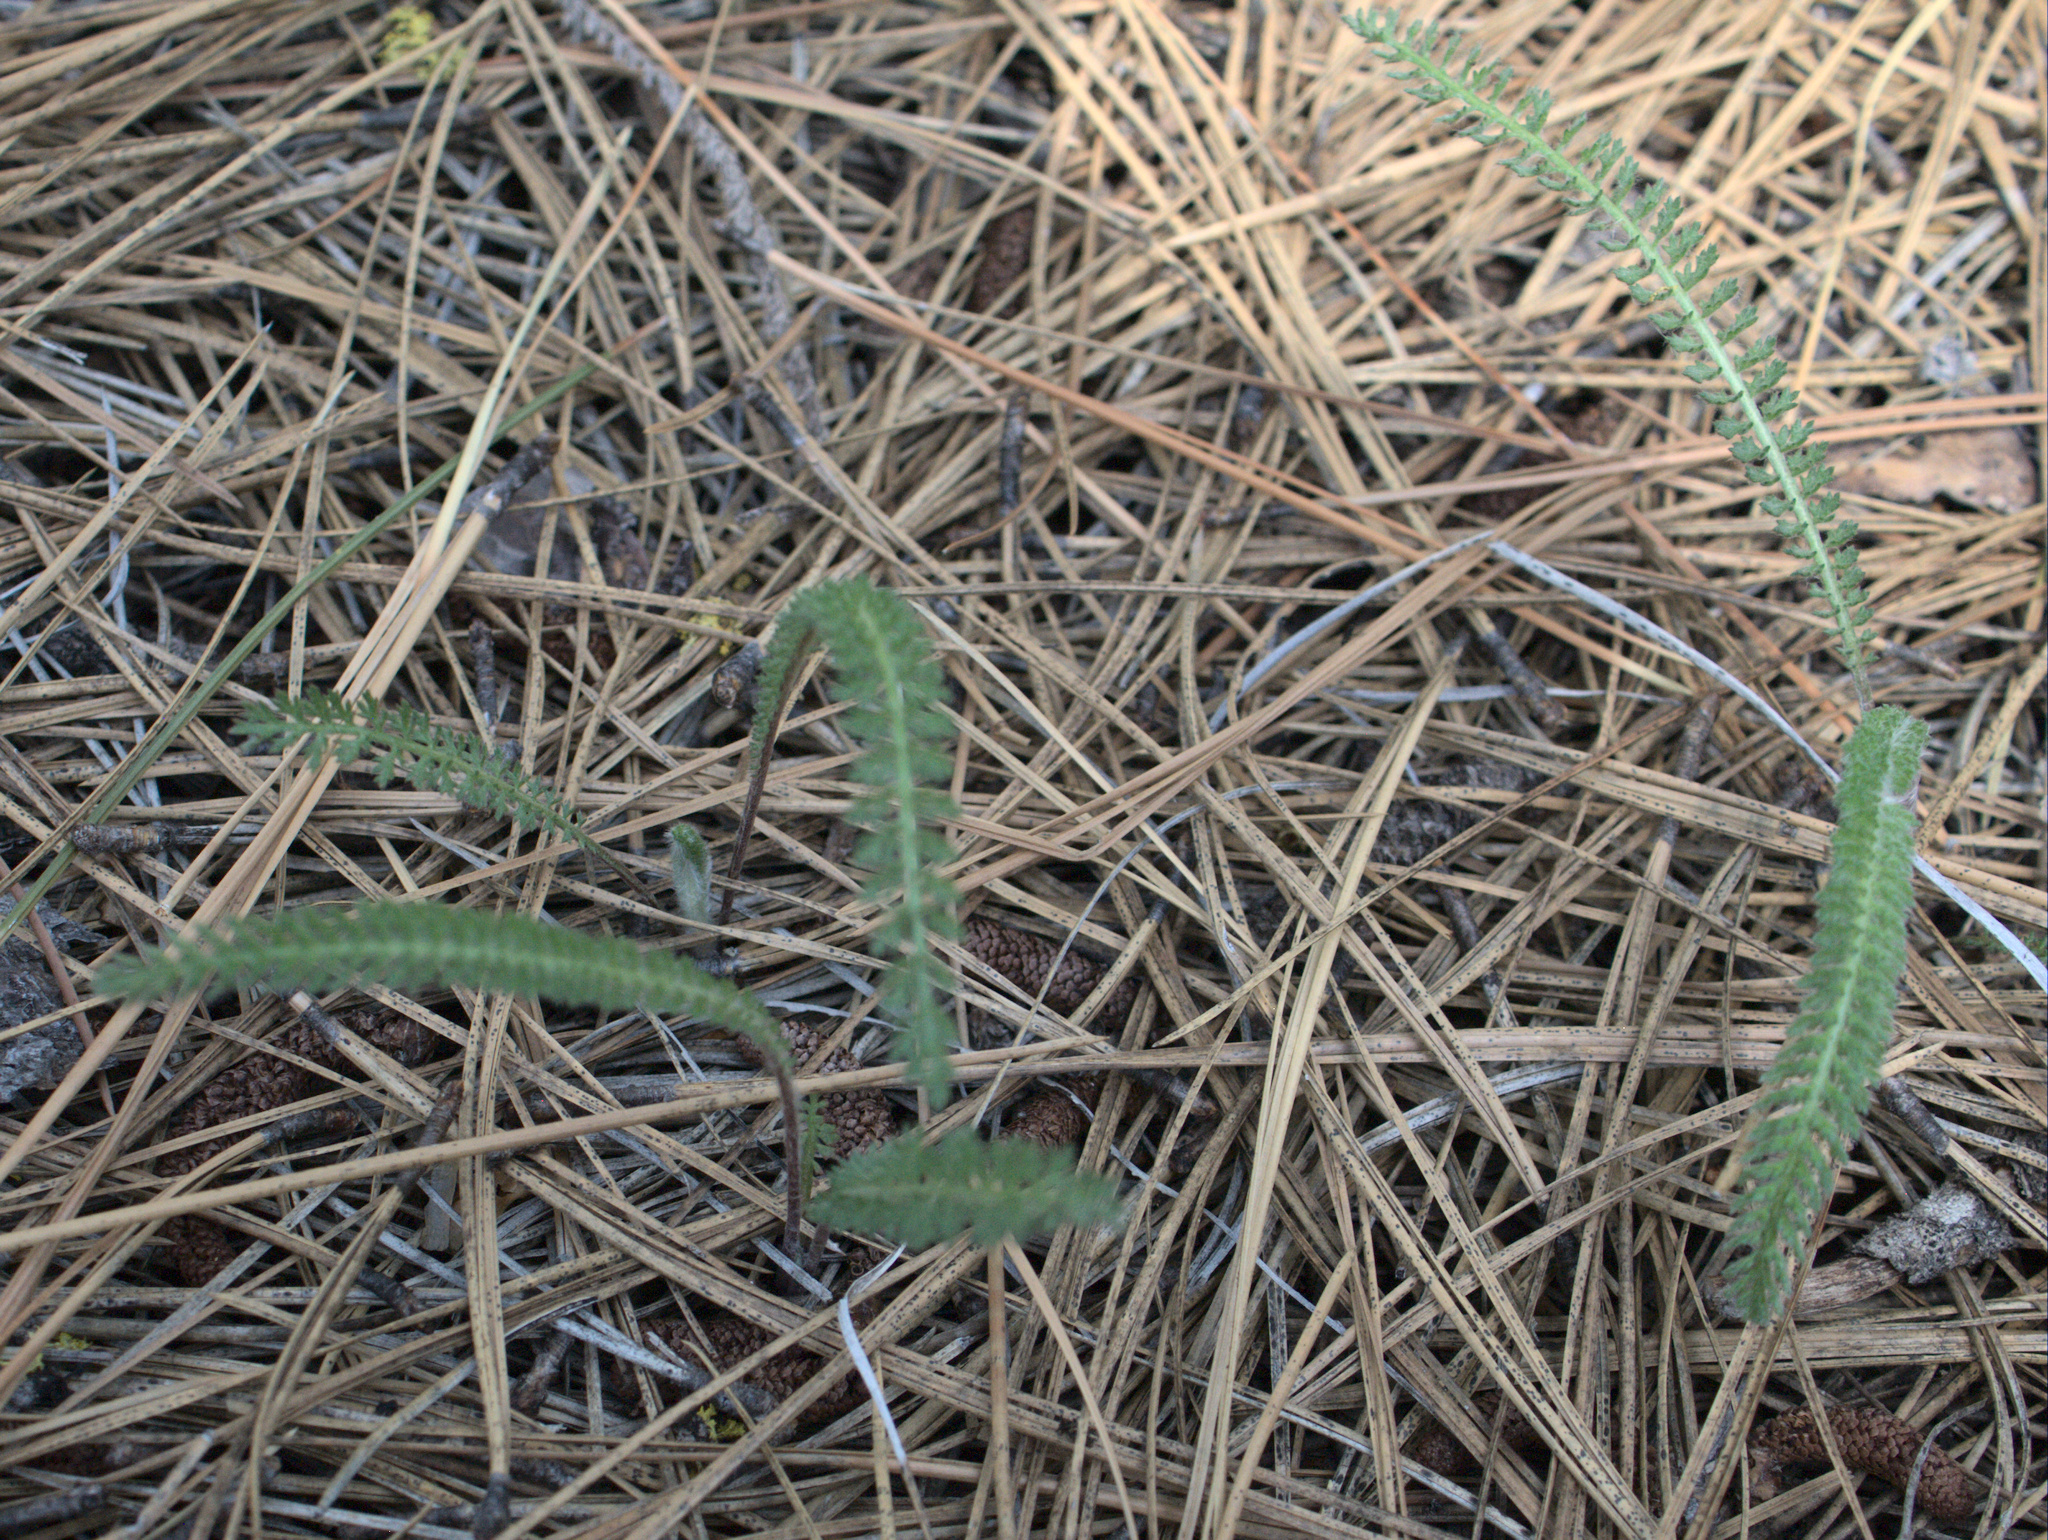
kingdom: Plantae
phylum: Tracheophyta
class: Magnoliopsida
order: Asterales
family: Asteraceae
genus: Achillea
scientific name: Achillea millefolium
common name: Yarrow
